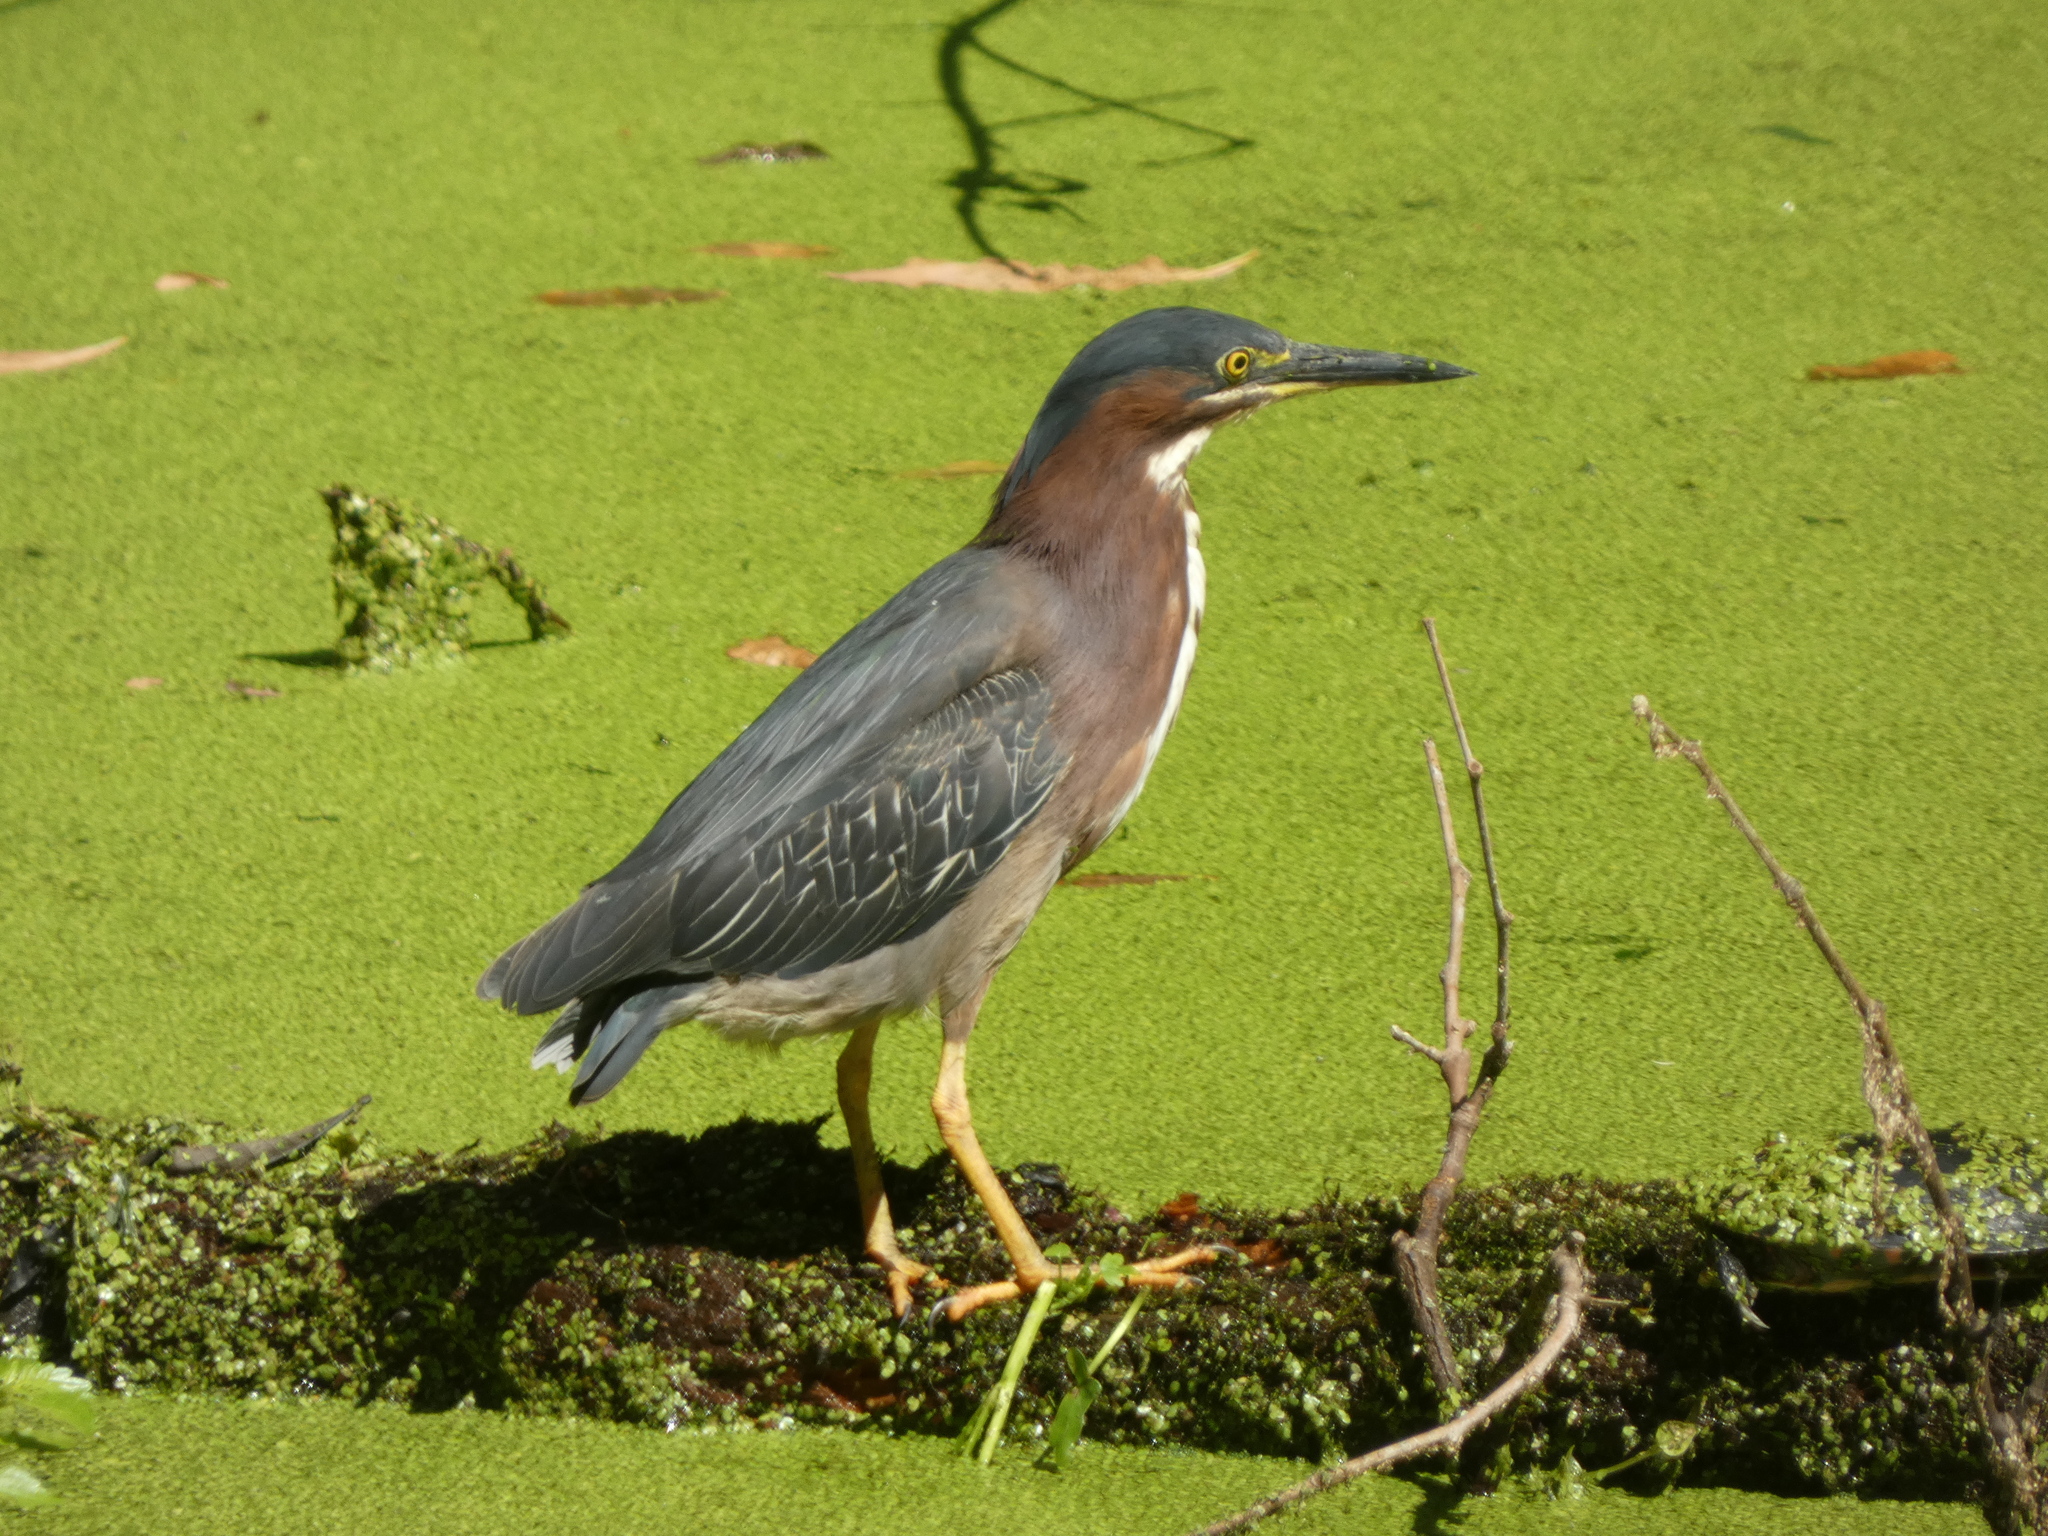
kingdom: Animalia
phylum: Chordata
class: Aves
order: Pelecaniformes
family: Ardeidae
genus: Butorides
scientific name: Butorides virescens
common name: Green heron
